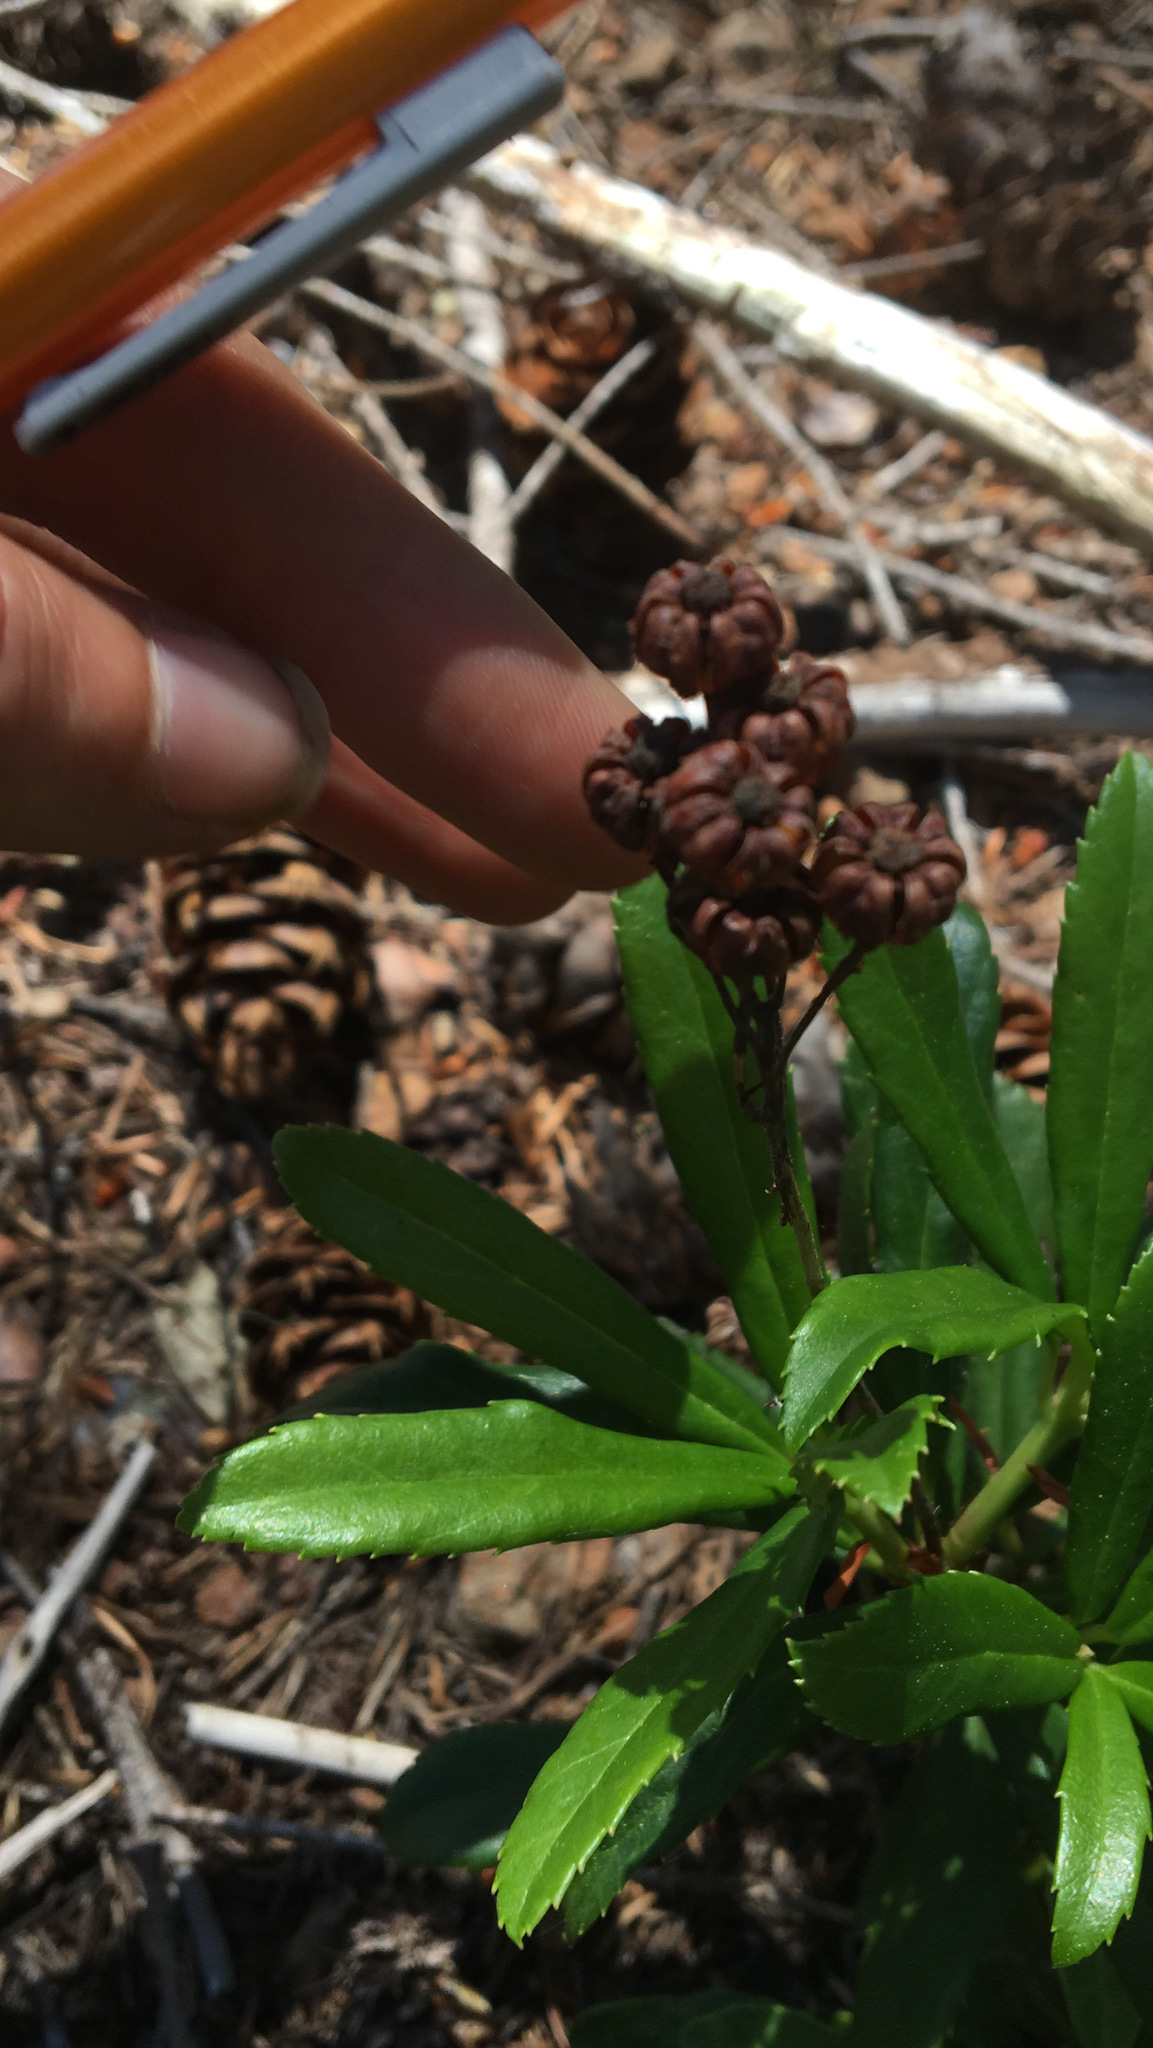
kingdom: Plantae
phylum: Tracheophyta
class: Magnoliopsida
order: Ericales
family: Ericaceae
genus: Chimaphila
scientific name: Chimaphila umbellata
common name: Pipsissewa
